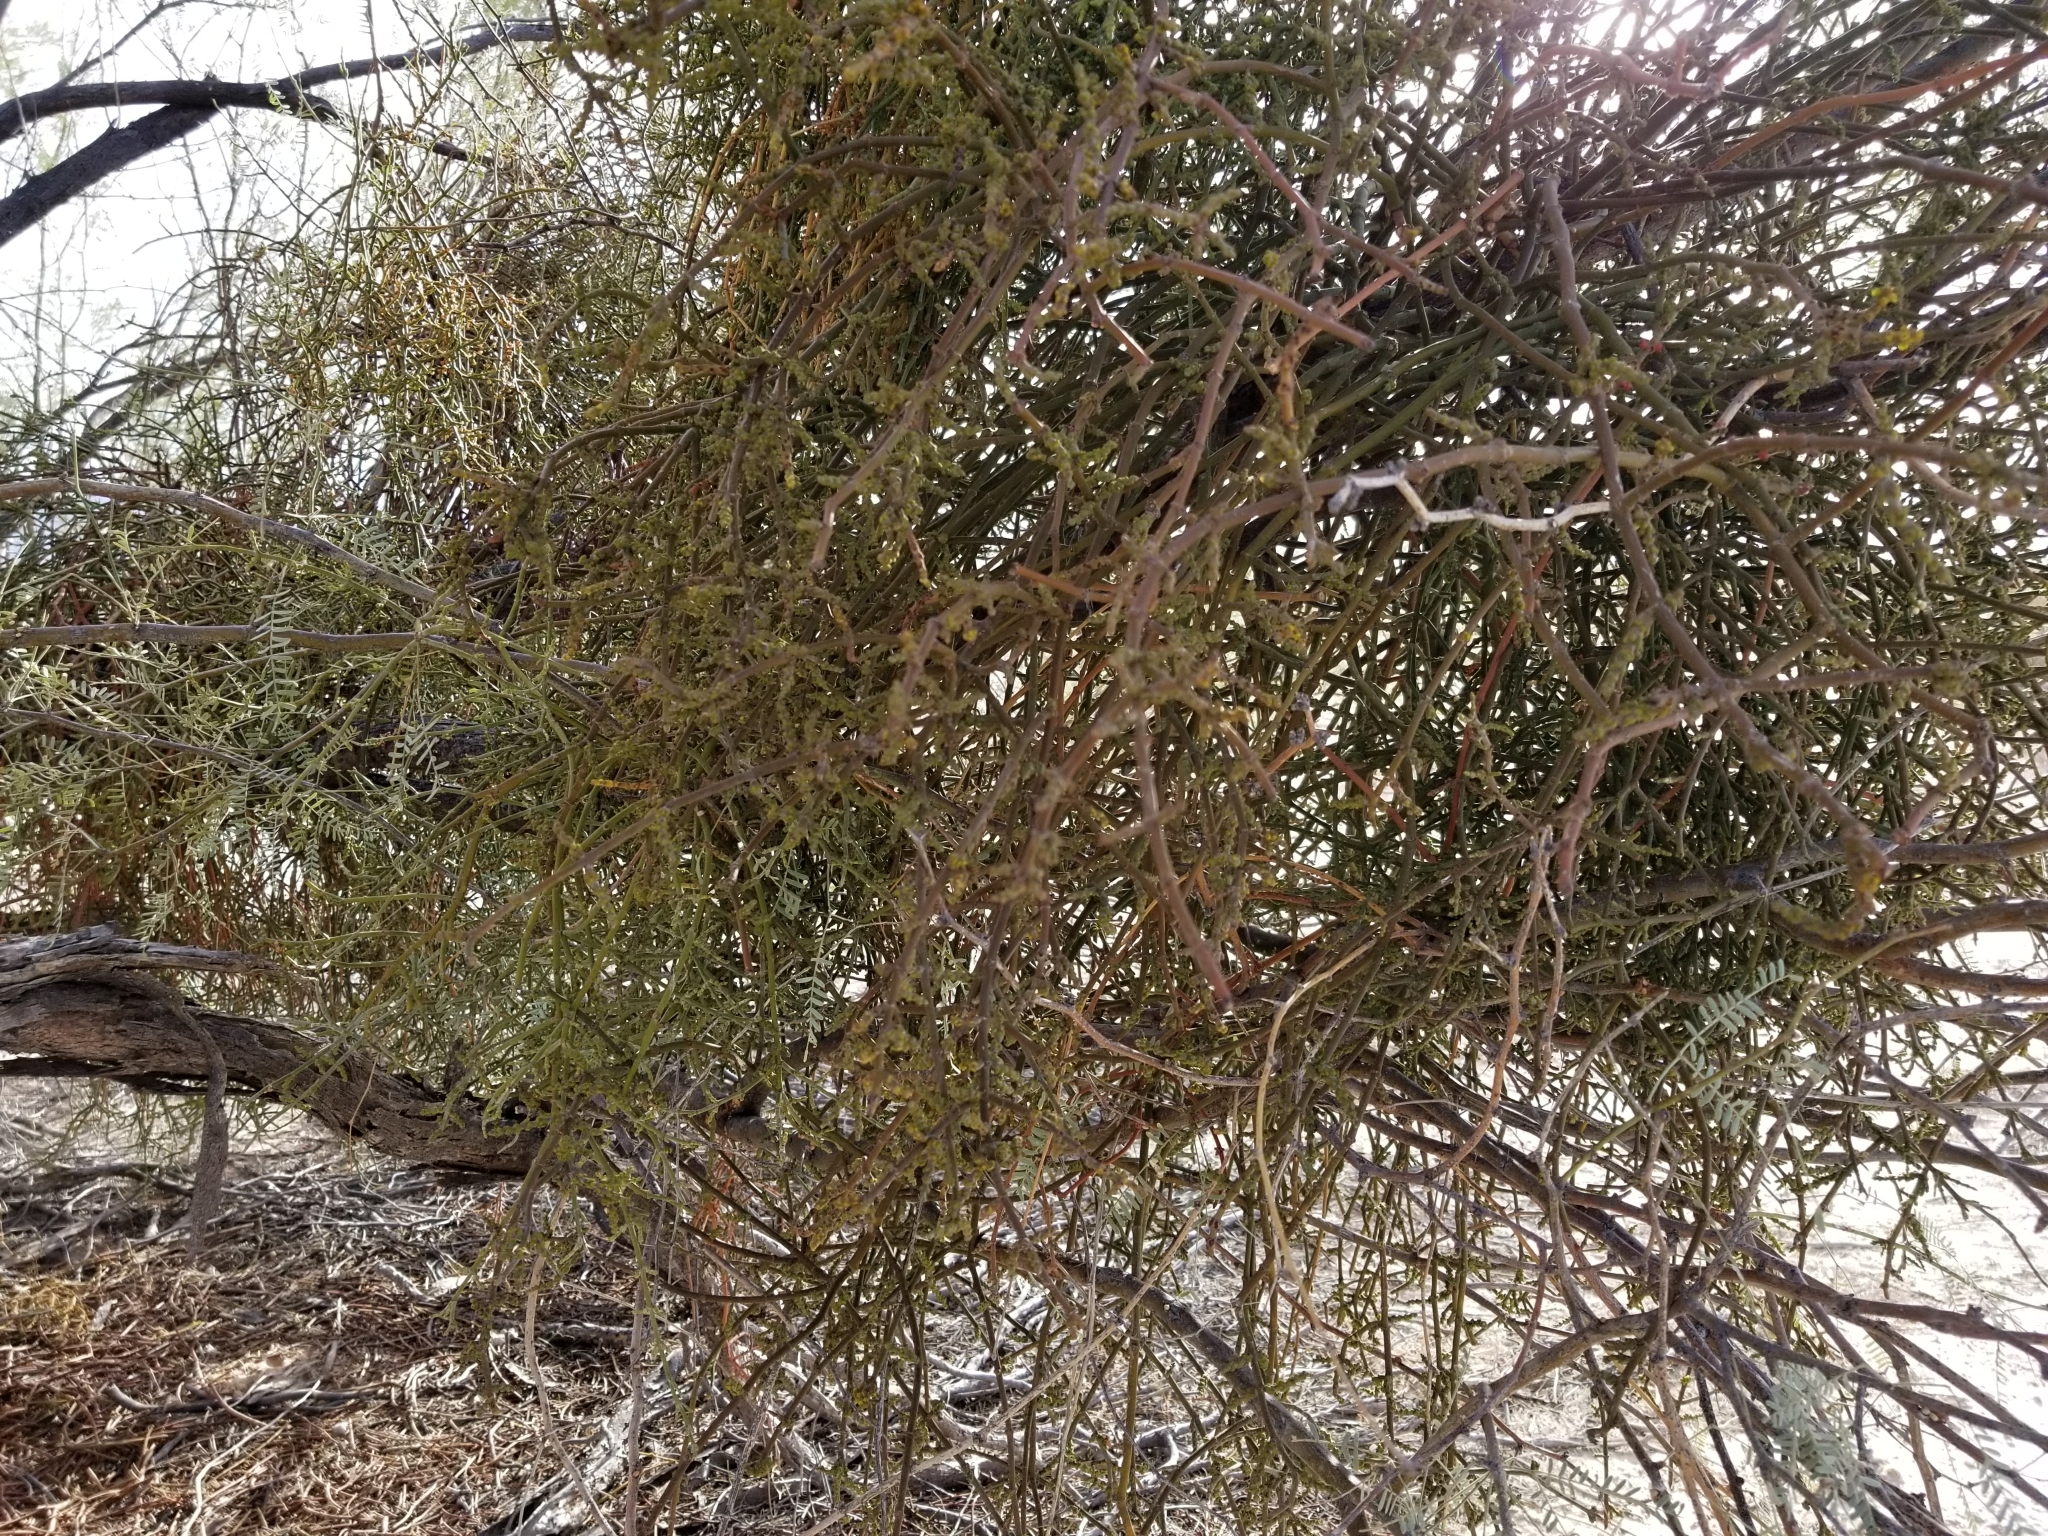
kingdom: Plantae
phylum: Tracheophyta
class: Magnoliopsida
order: Santalales
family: Viscaceae
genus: Phoradendron
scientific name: Phoradendron californicum
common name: Acacia mistletoe
